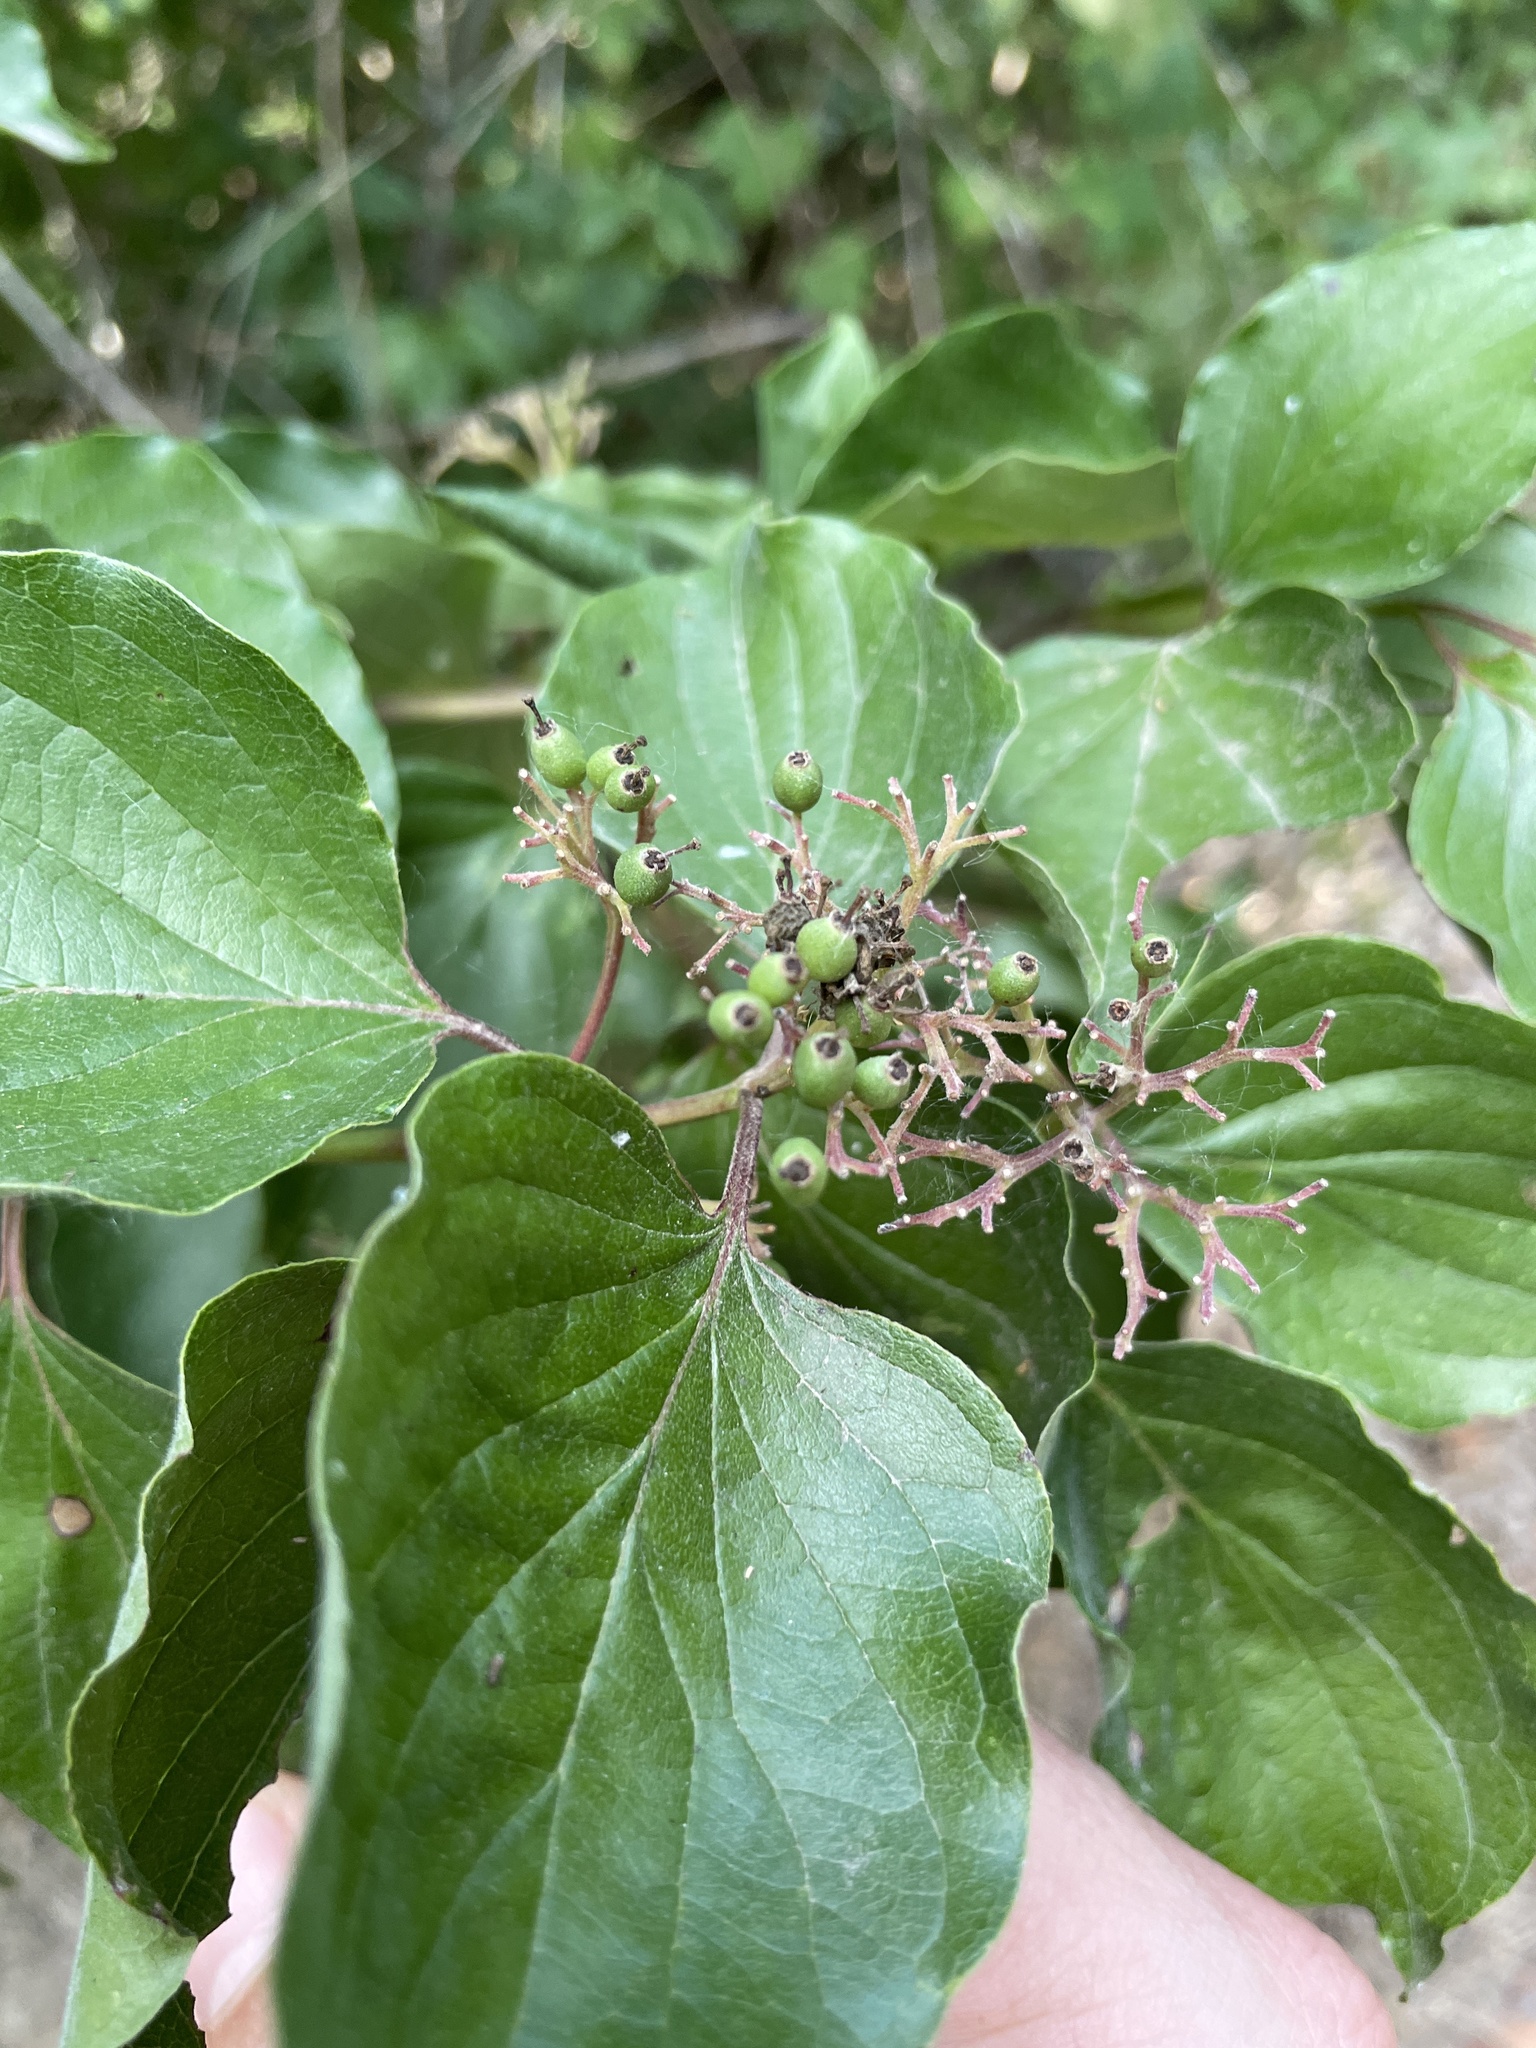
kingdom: Plantae
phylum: Tracheophyta
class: Magnoliopsida
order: Cornales
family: Cornaceae
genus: Cornus
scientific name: Cornus drummondii
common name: Rough-leaf dogwood
